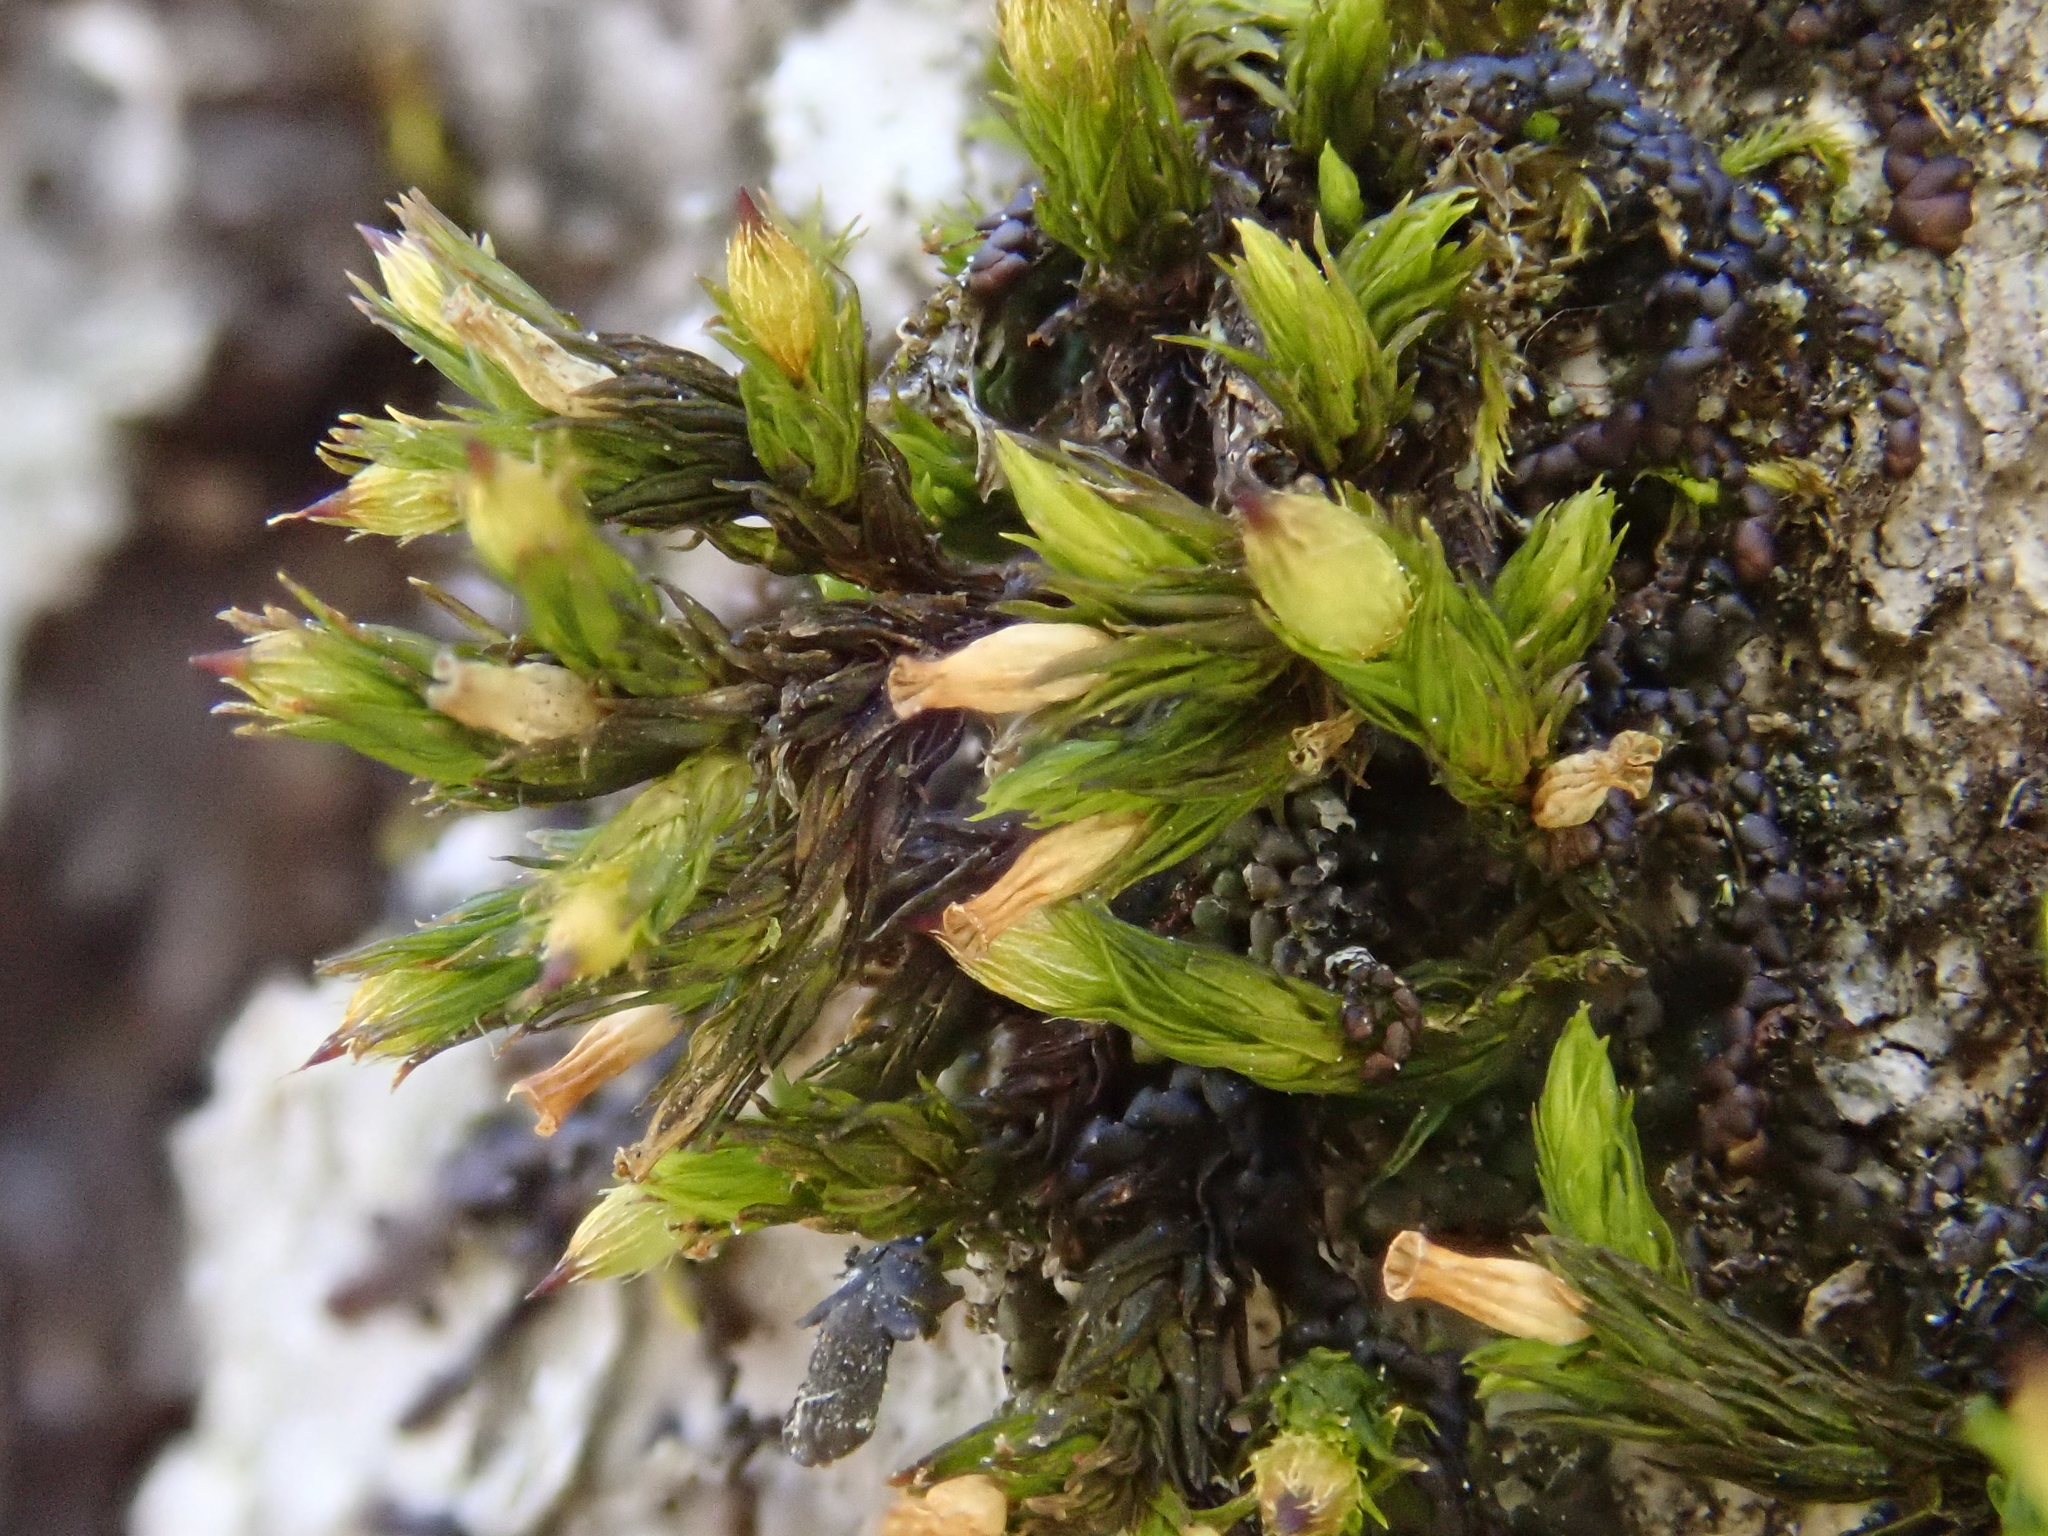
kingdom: Plantae
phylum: Bryophyta
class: Bryopsida
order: Orthotrichales
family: Orthotrichaceae
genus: Orthotrichum
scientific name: Orthotrichum patens
